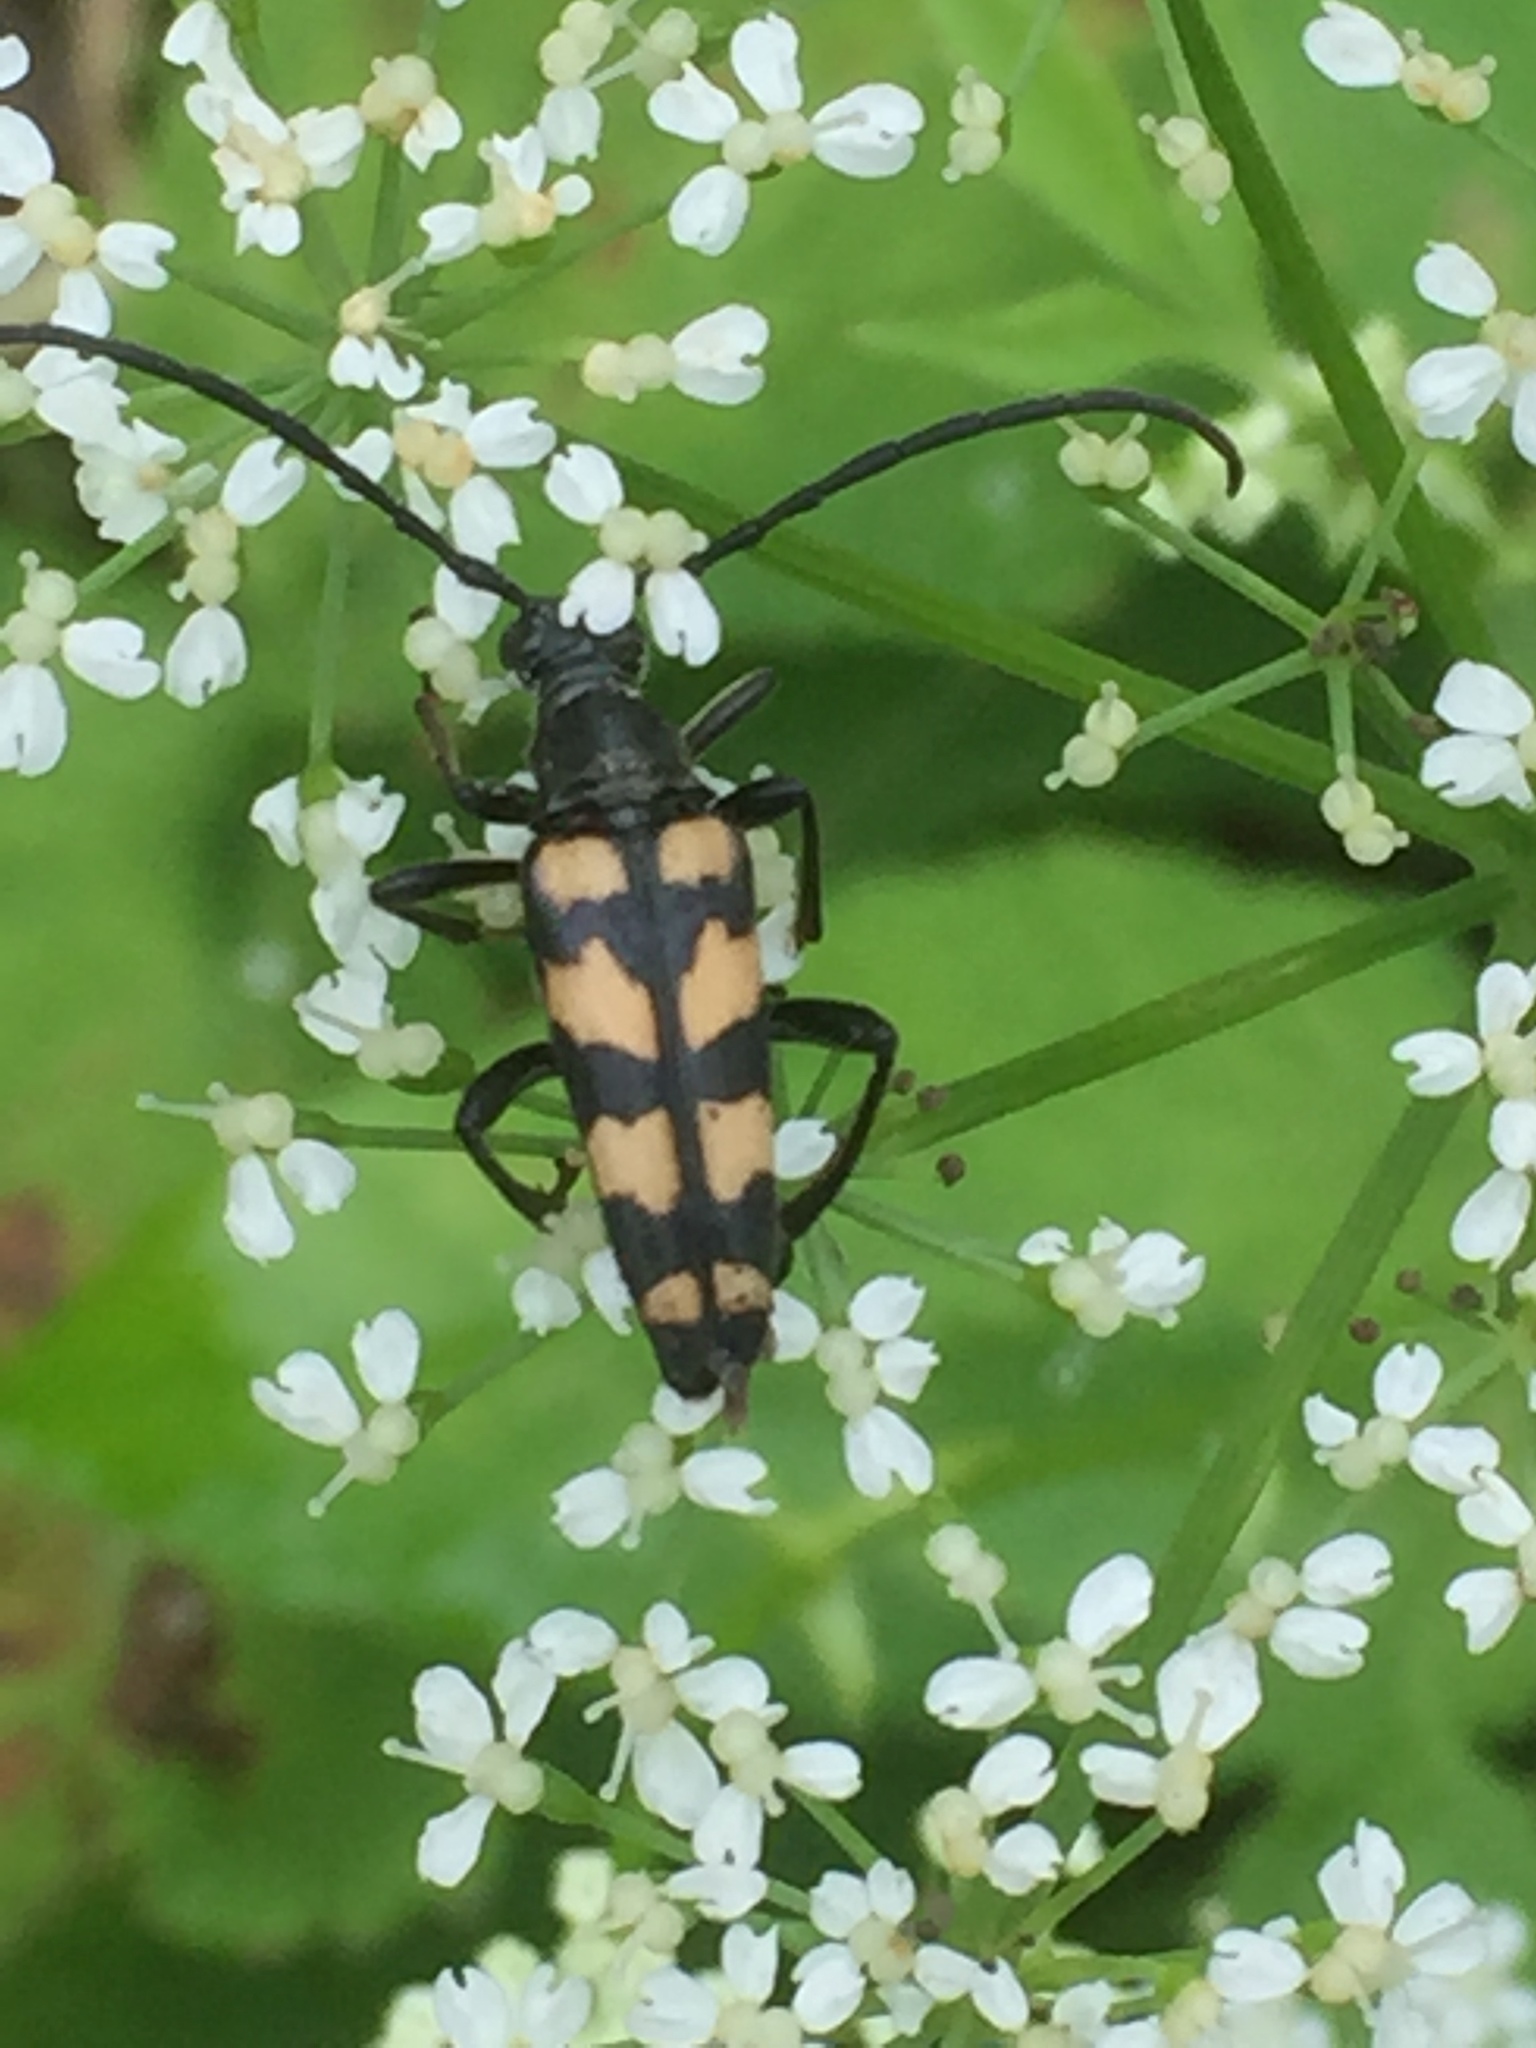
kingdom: Animalia
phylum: Arthropoda
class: Insecta
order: Coleoptera
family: Cerambycidae
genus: Leptura
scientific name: Leptura quadrifasciata
